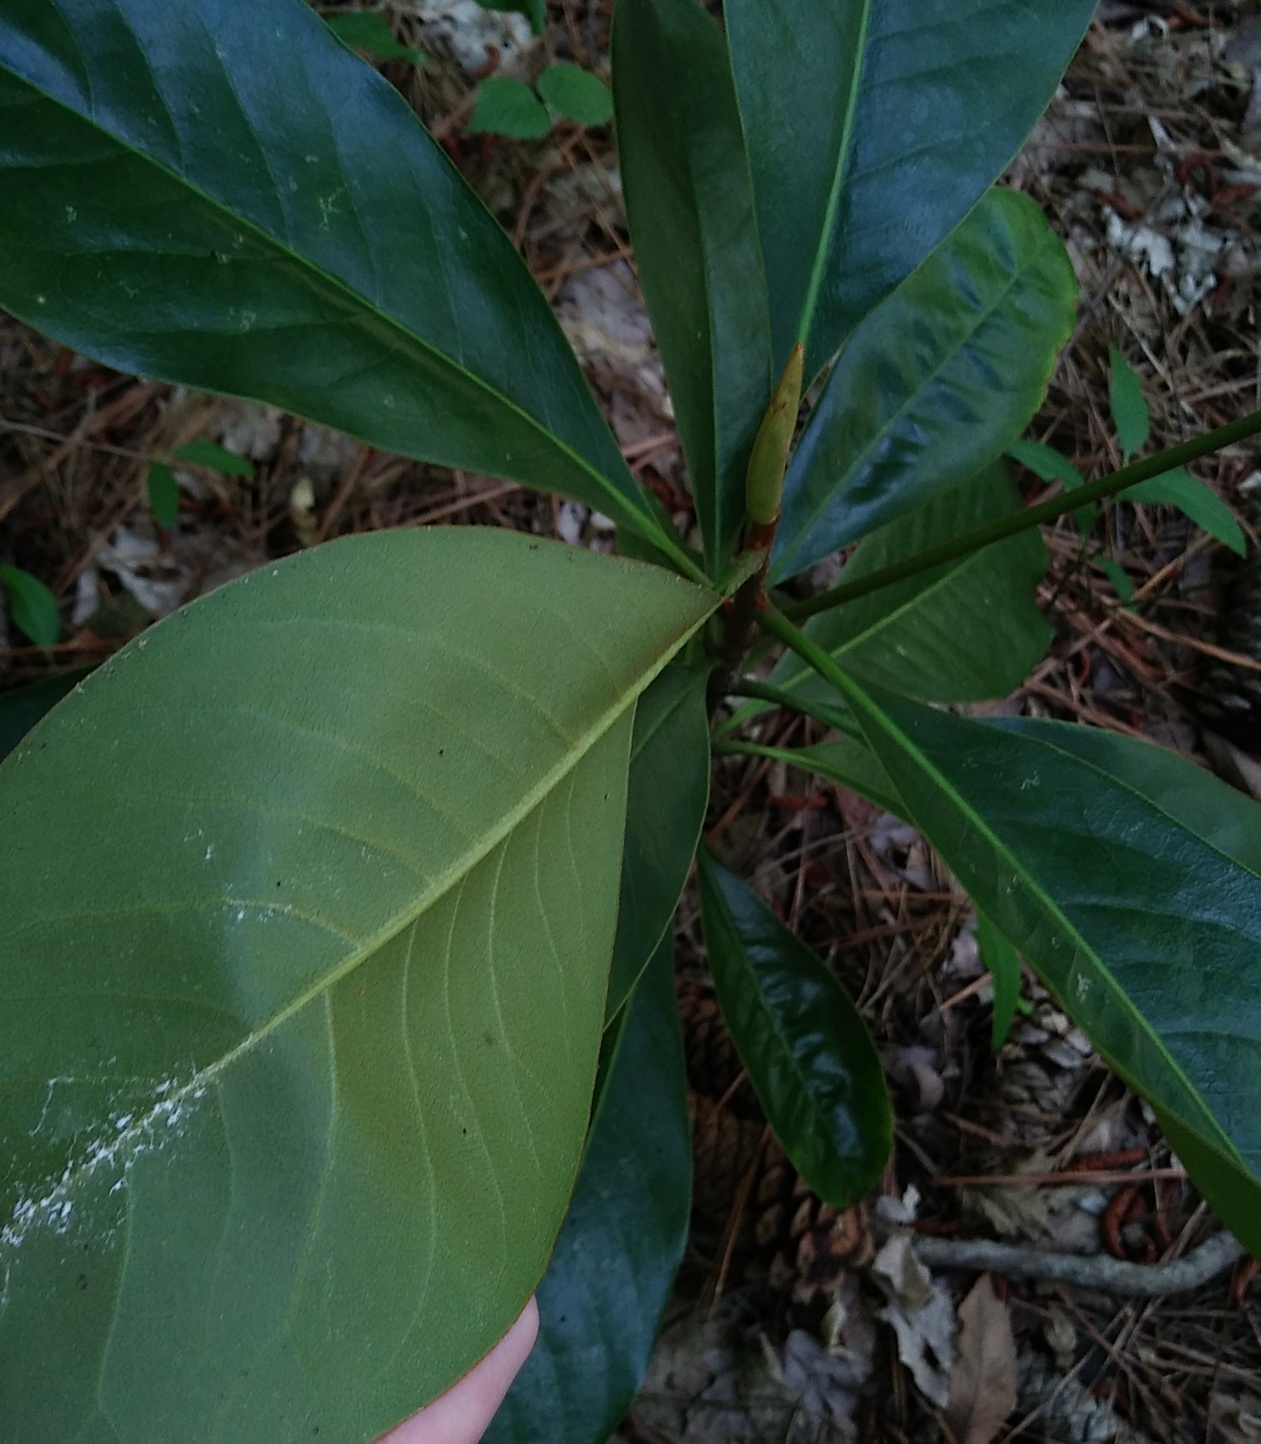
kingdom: Plantae
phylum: Tracheophyta
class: Magnoliopsida
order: Magnoliales
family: Magnoliaceae
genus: Magnolia
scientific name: Magnolia grandiflora
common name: Southern magnolia
